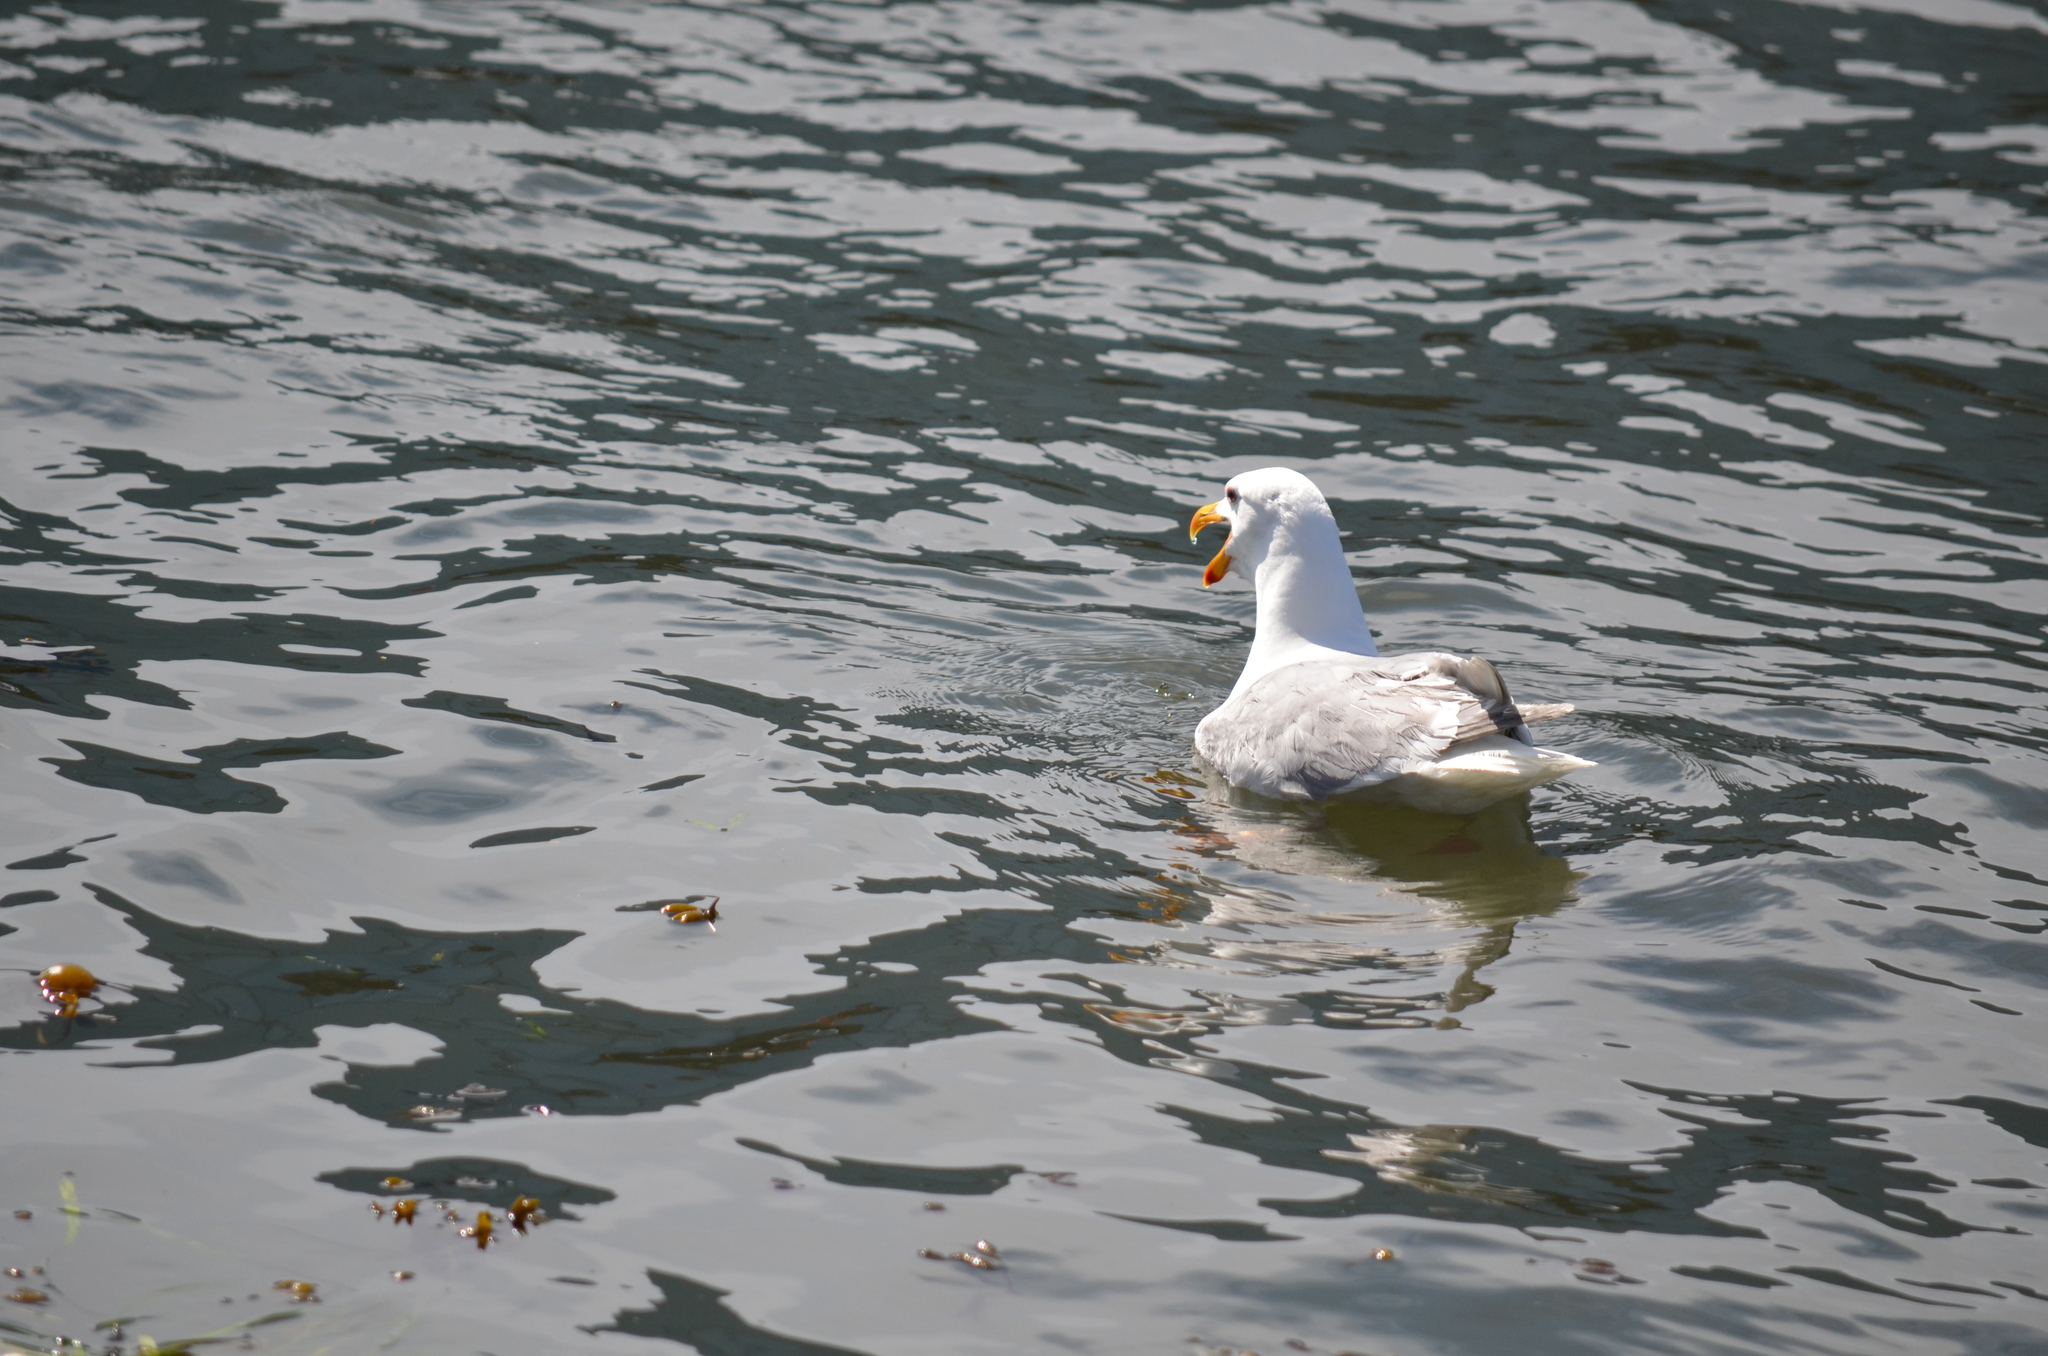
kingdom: Animalia
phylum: Chordata
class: Aves
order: Charadriiformes
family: Laridae
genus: Larus
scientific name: Larus
